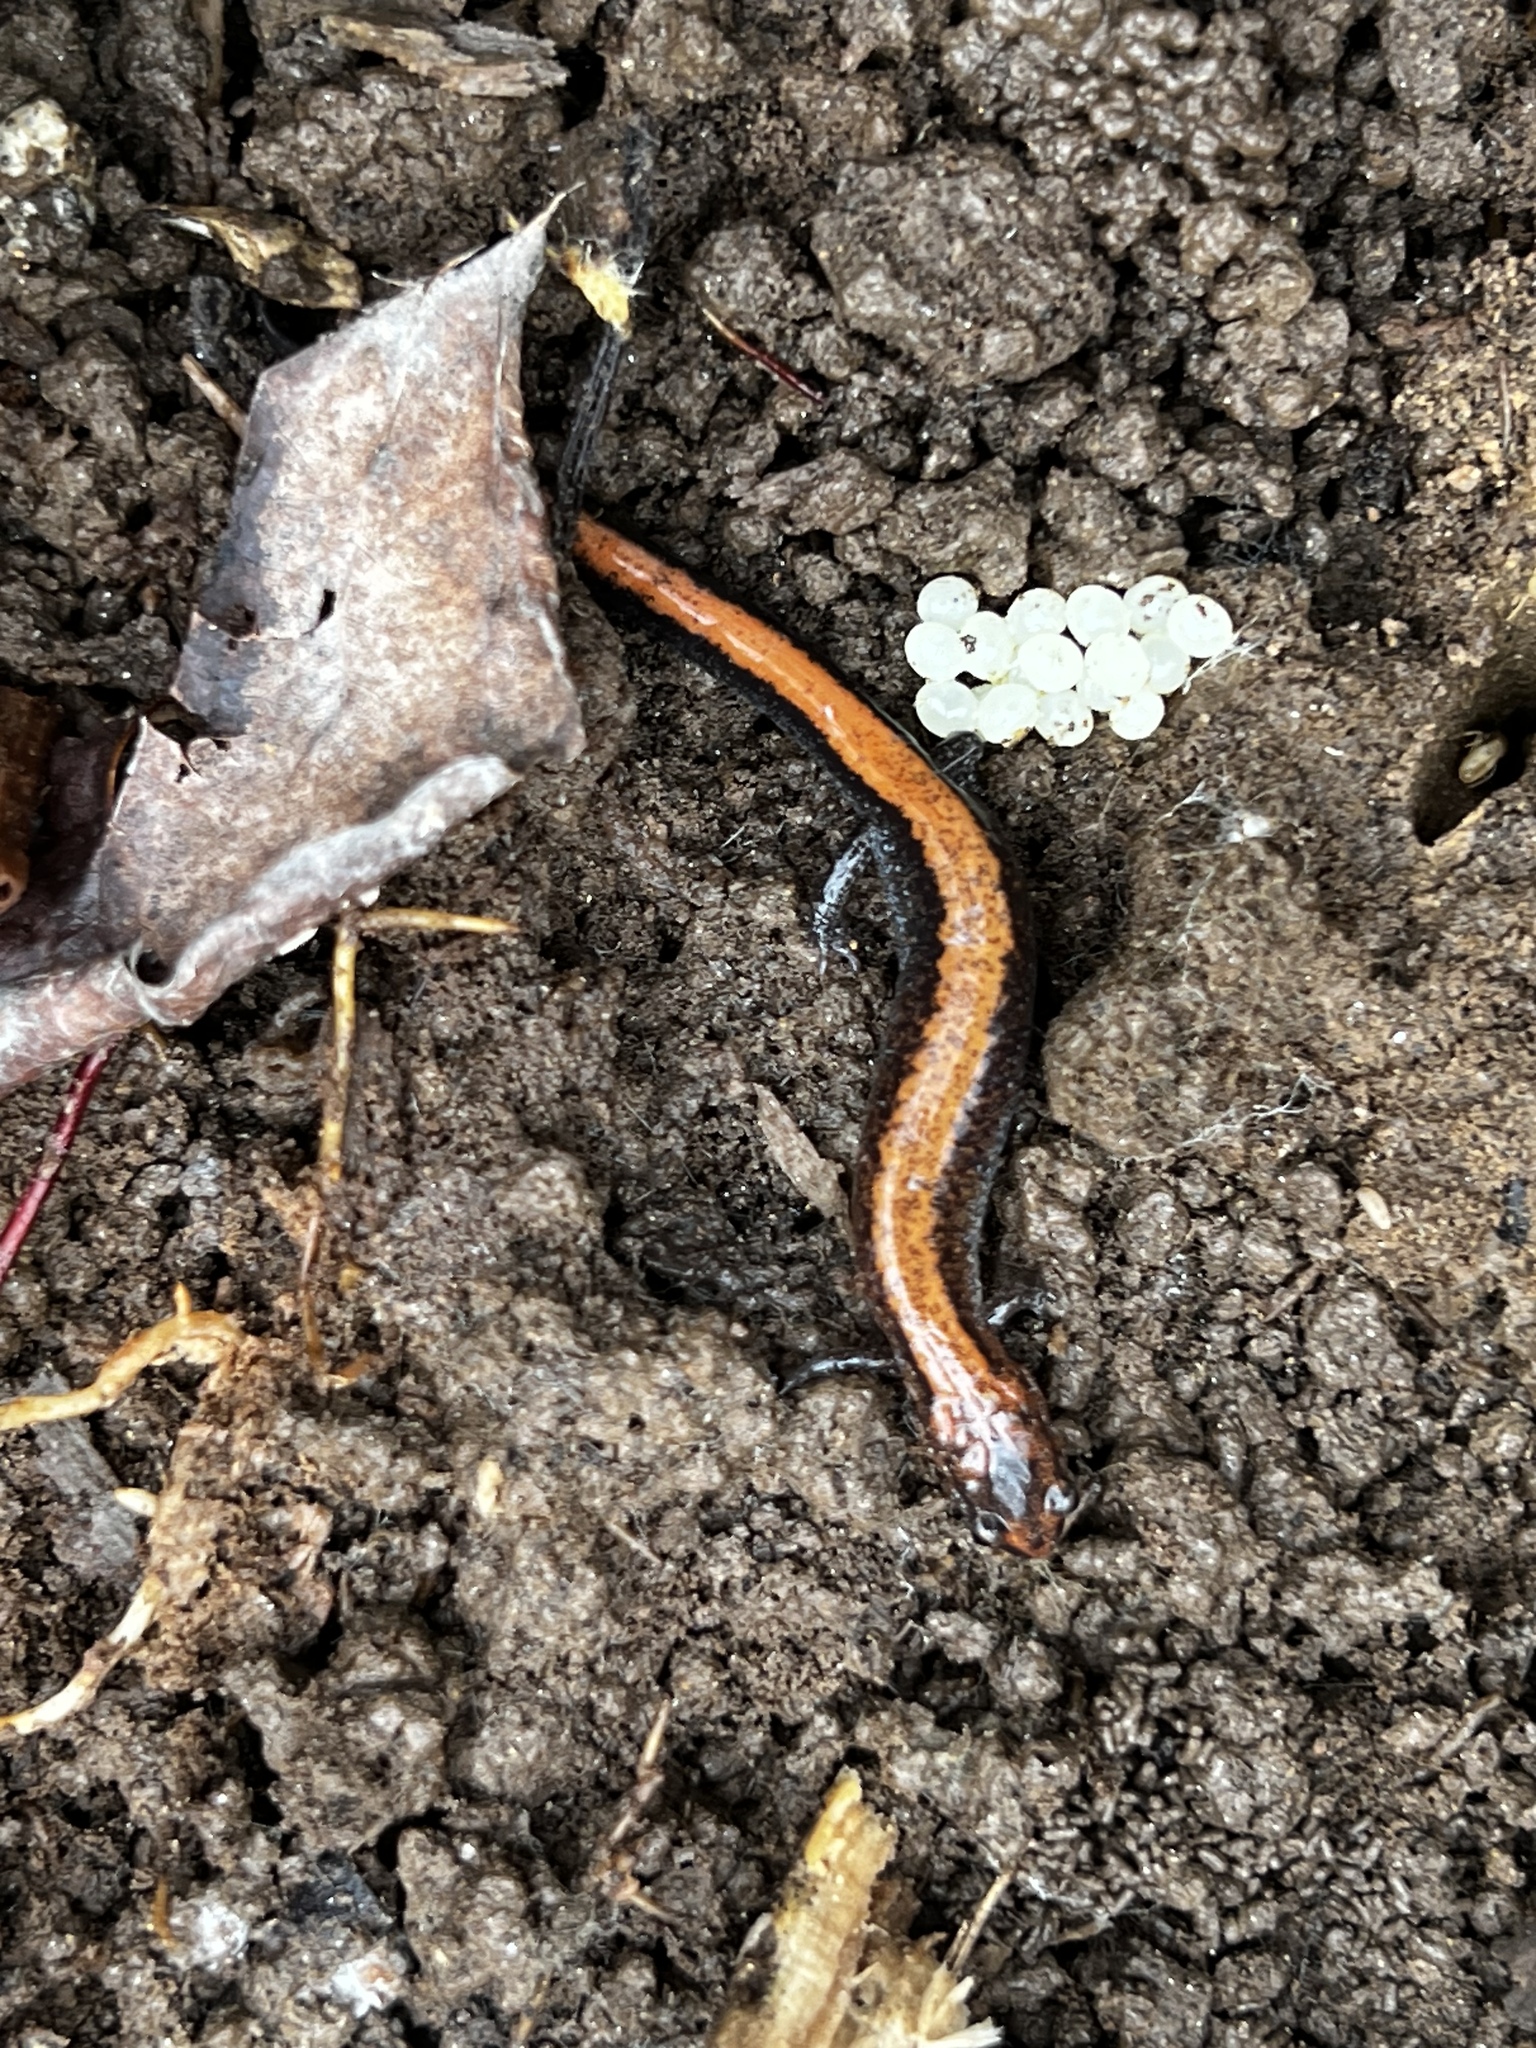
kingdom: Animalia
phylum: Chordata
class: Amphibia
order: Caudata
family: Plethodontidae
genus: Plethodon
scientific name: Plethodon cinereus
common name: Redback salamander
